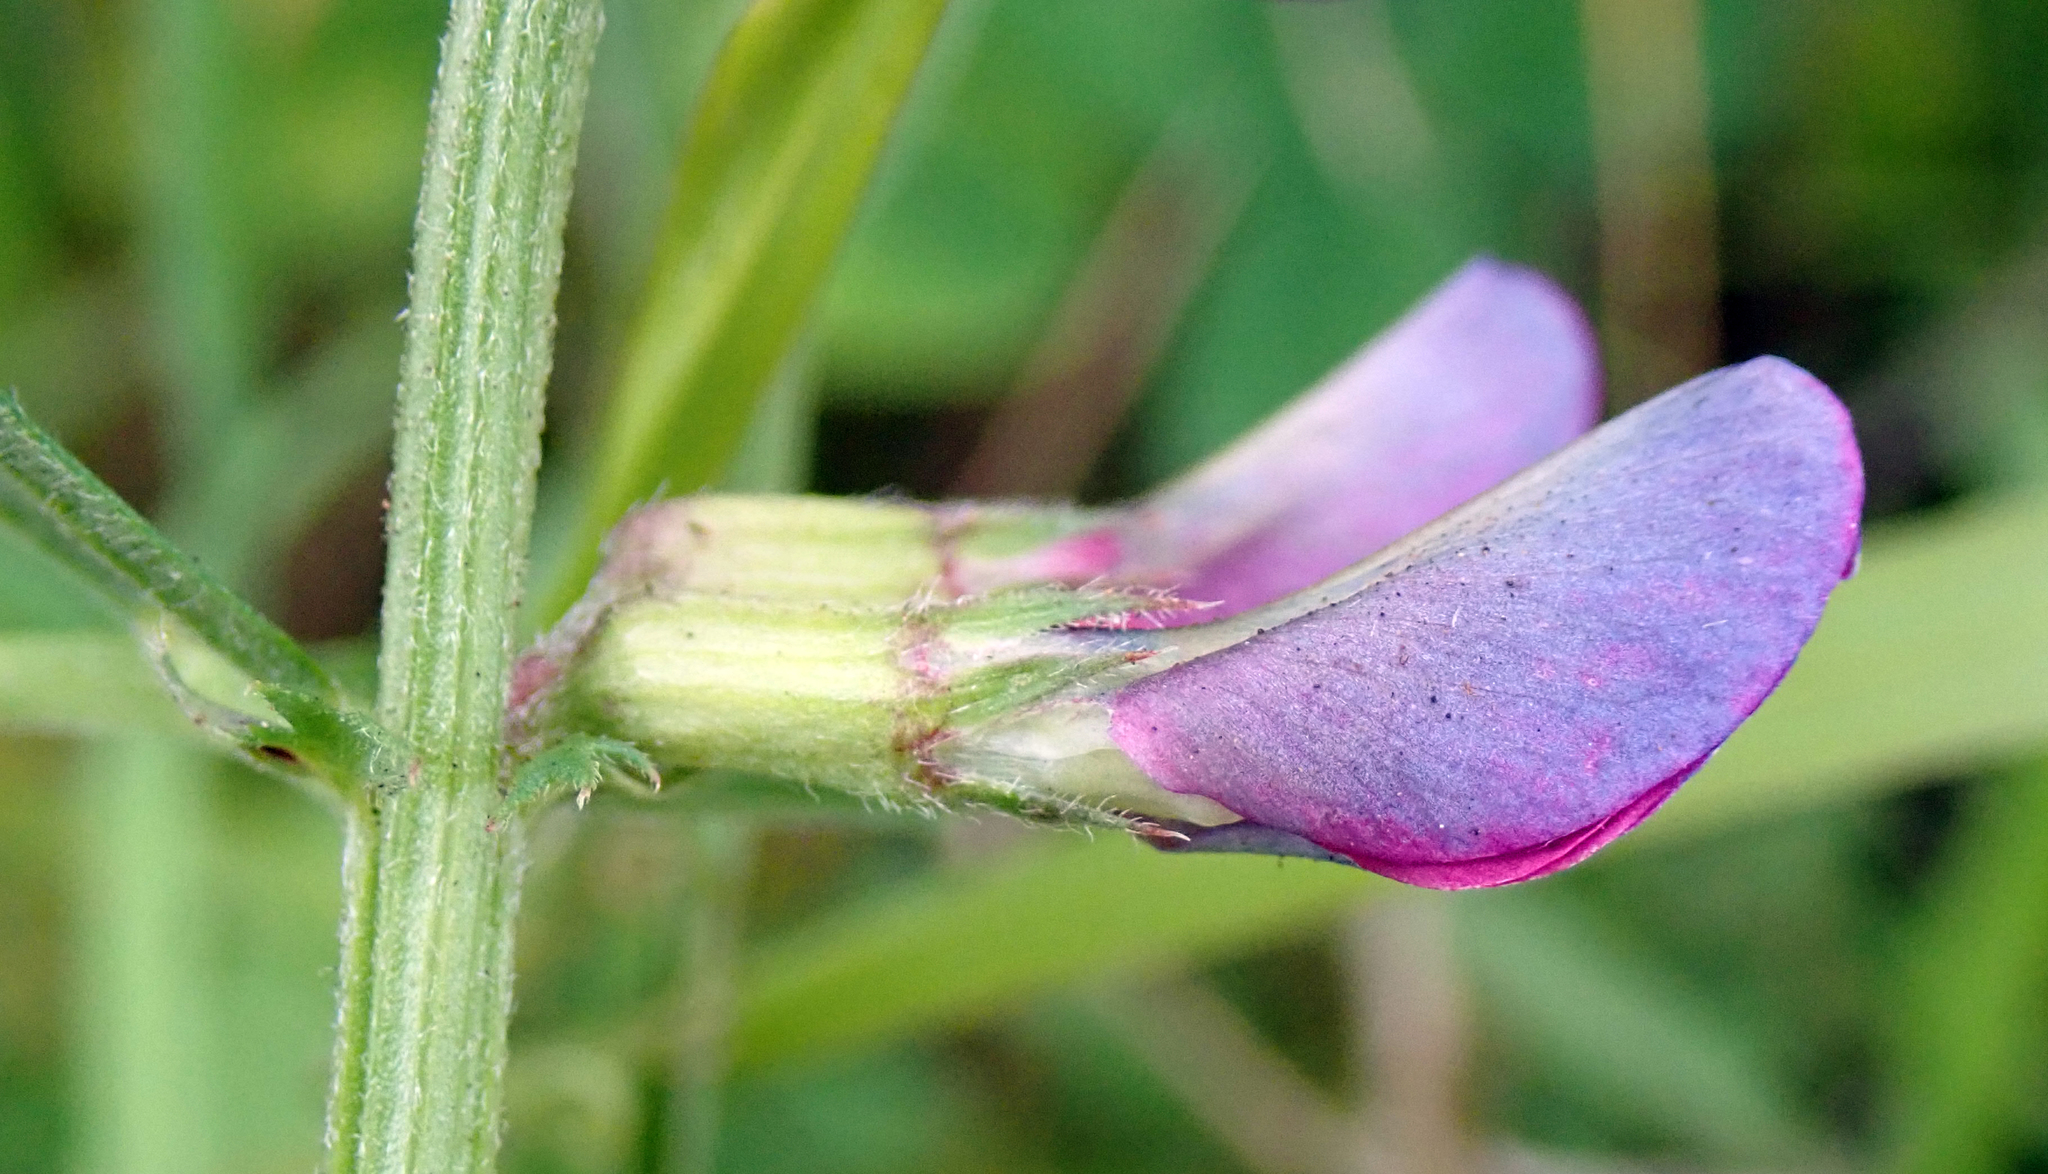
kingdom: Plantae
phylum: Tracheophyta
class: Magnoliopsida
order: Fabales
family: Fabaceae
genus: Vicia
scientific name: Vicia sativa
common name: Garden vetch
